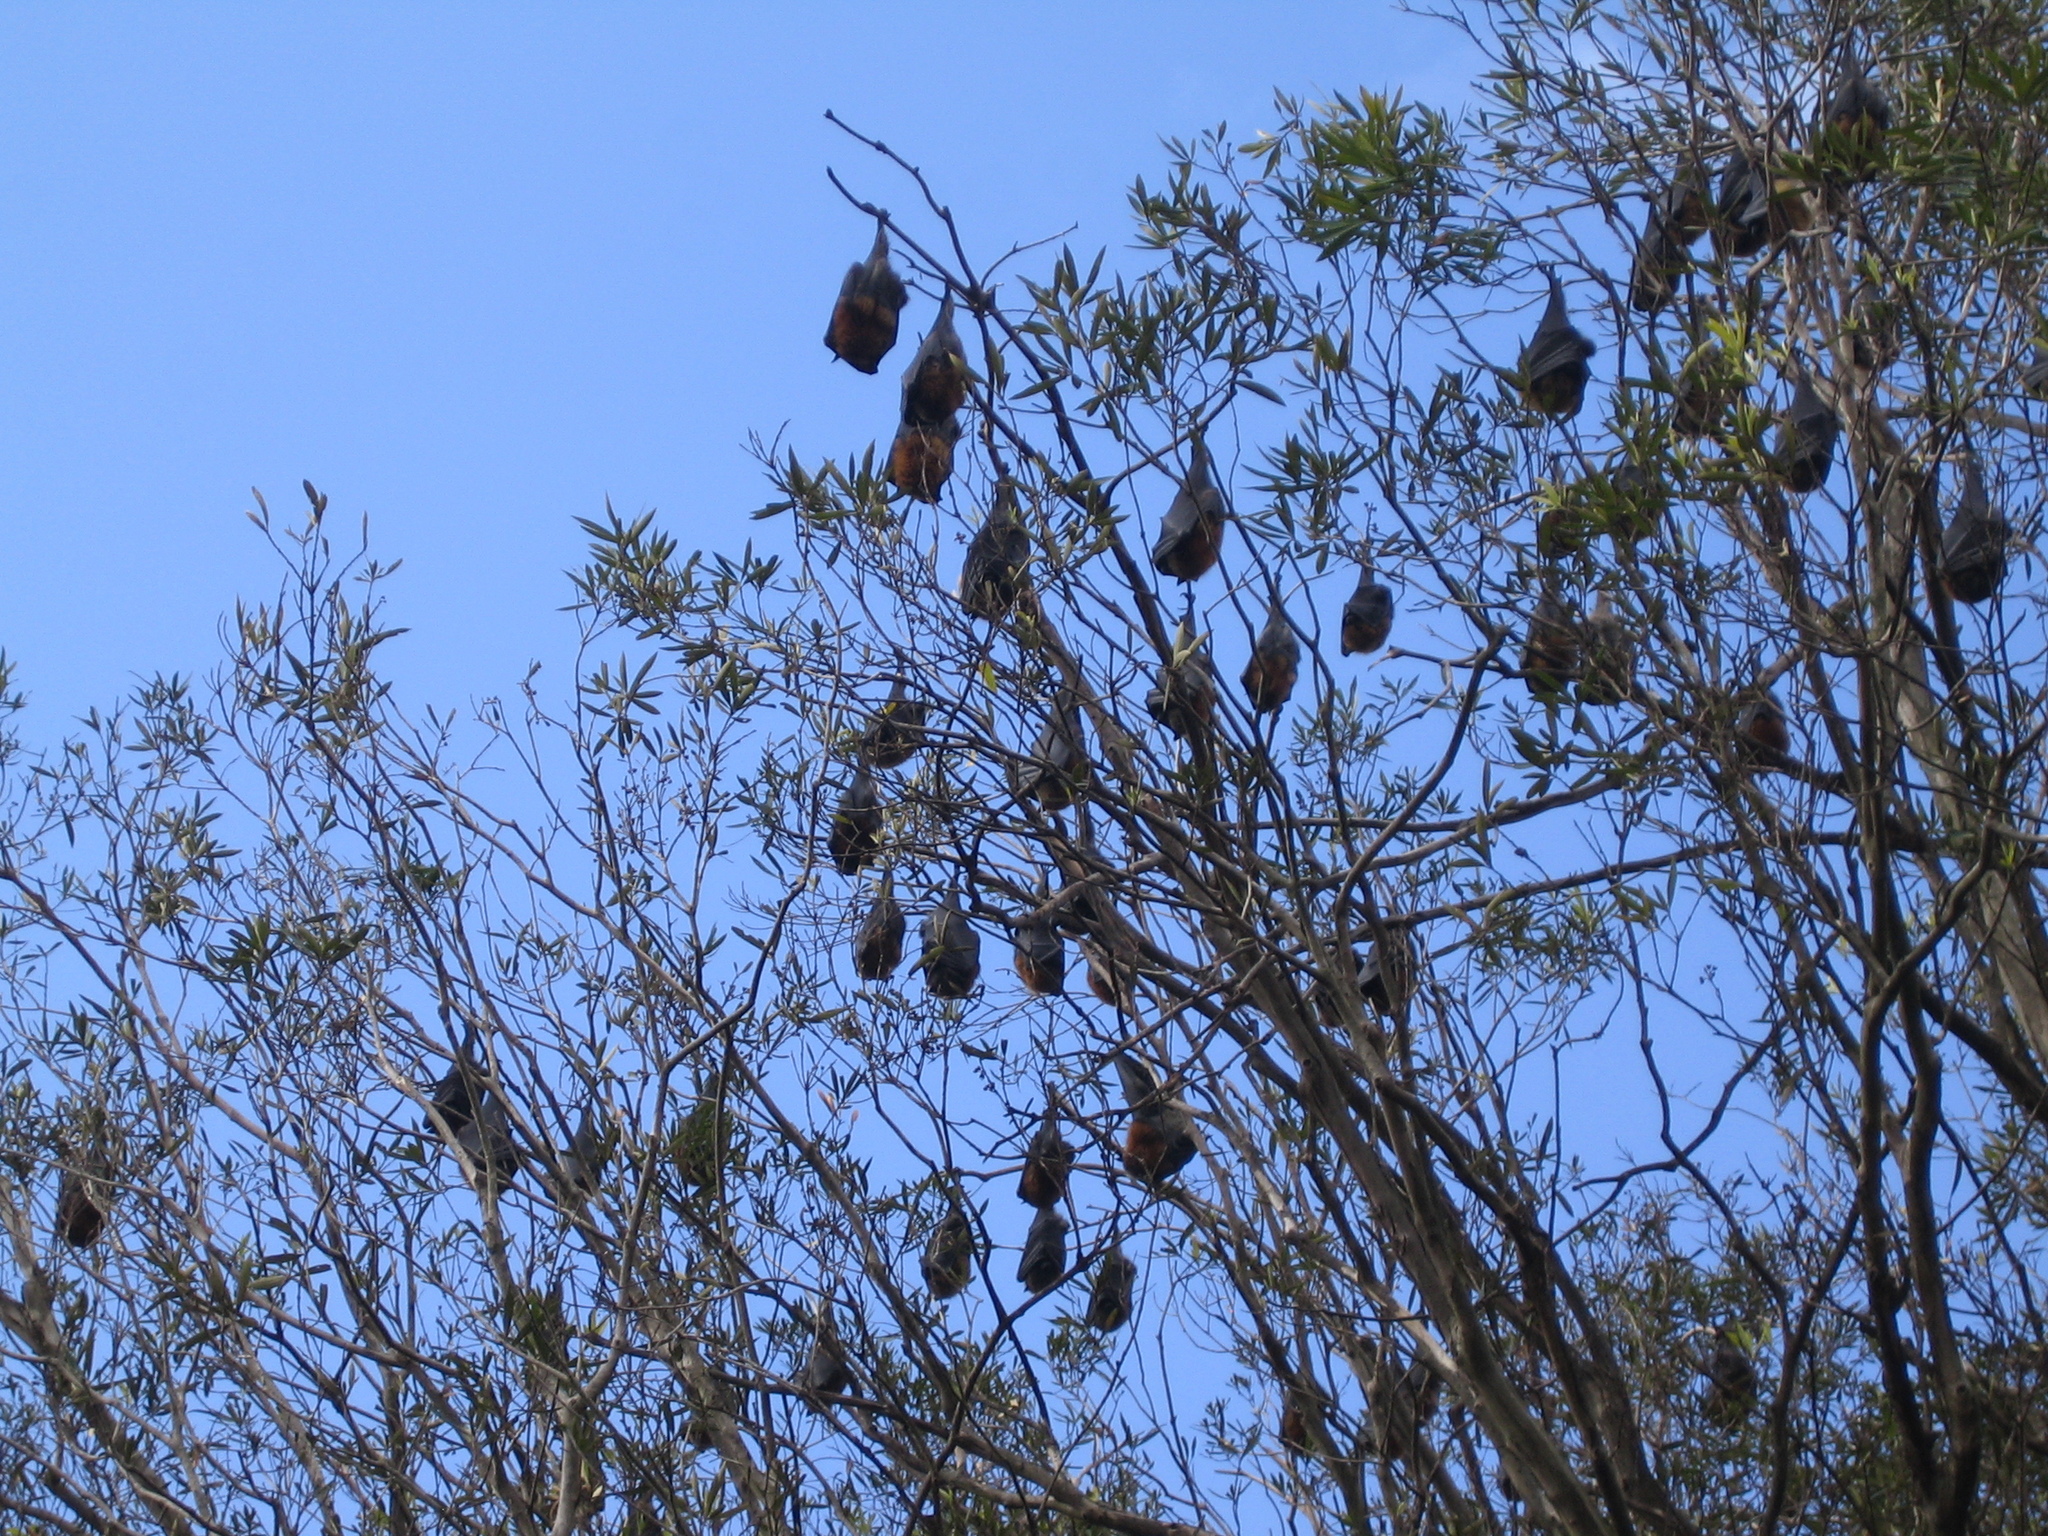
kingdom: Animalia
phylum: Chordata
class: Mammalia
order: Chiroptera
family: Pteropodidae
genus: Pteropus
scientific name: Pteropus poliocephalus
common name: Gray-headed flying fox
